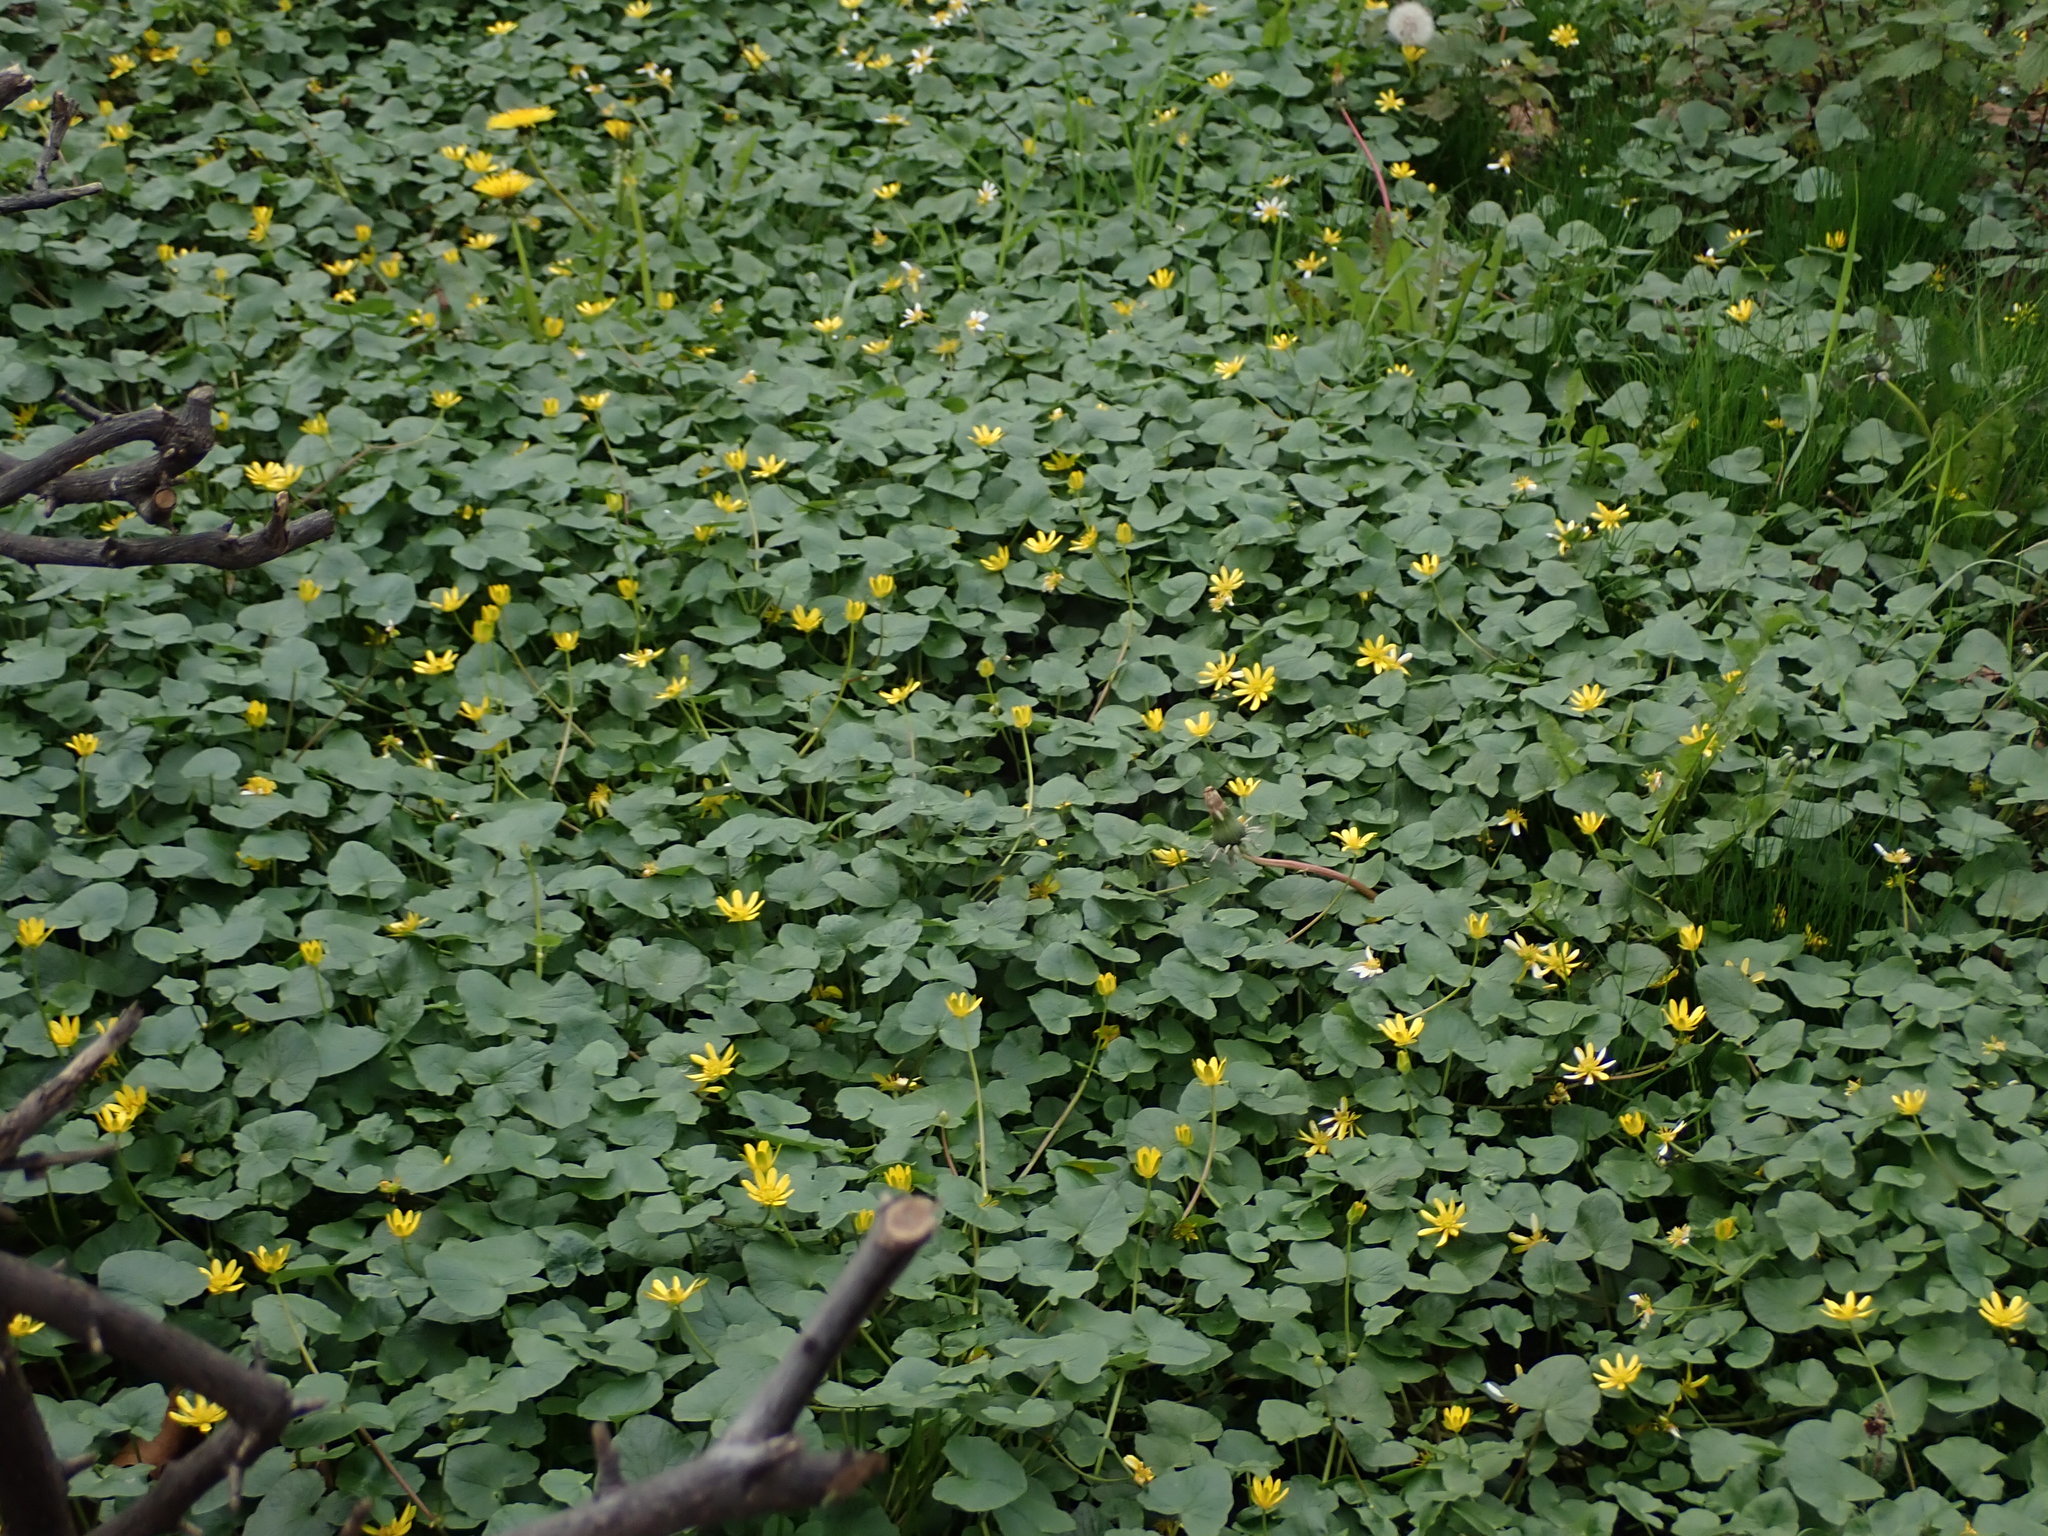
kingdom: Plantae
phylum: Tracheophyta
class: Magnoliopsida
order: Ranunculales
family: Ranunculaceae
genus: Ficaria
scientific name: Ficaria verna
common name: Lesser celandine
